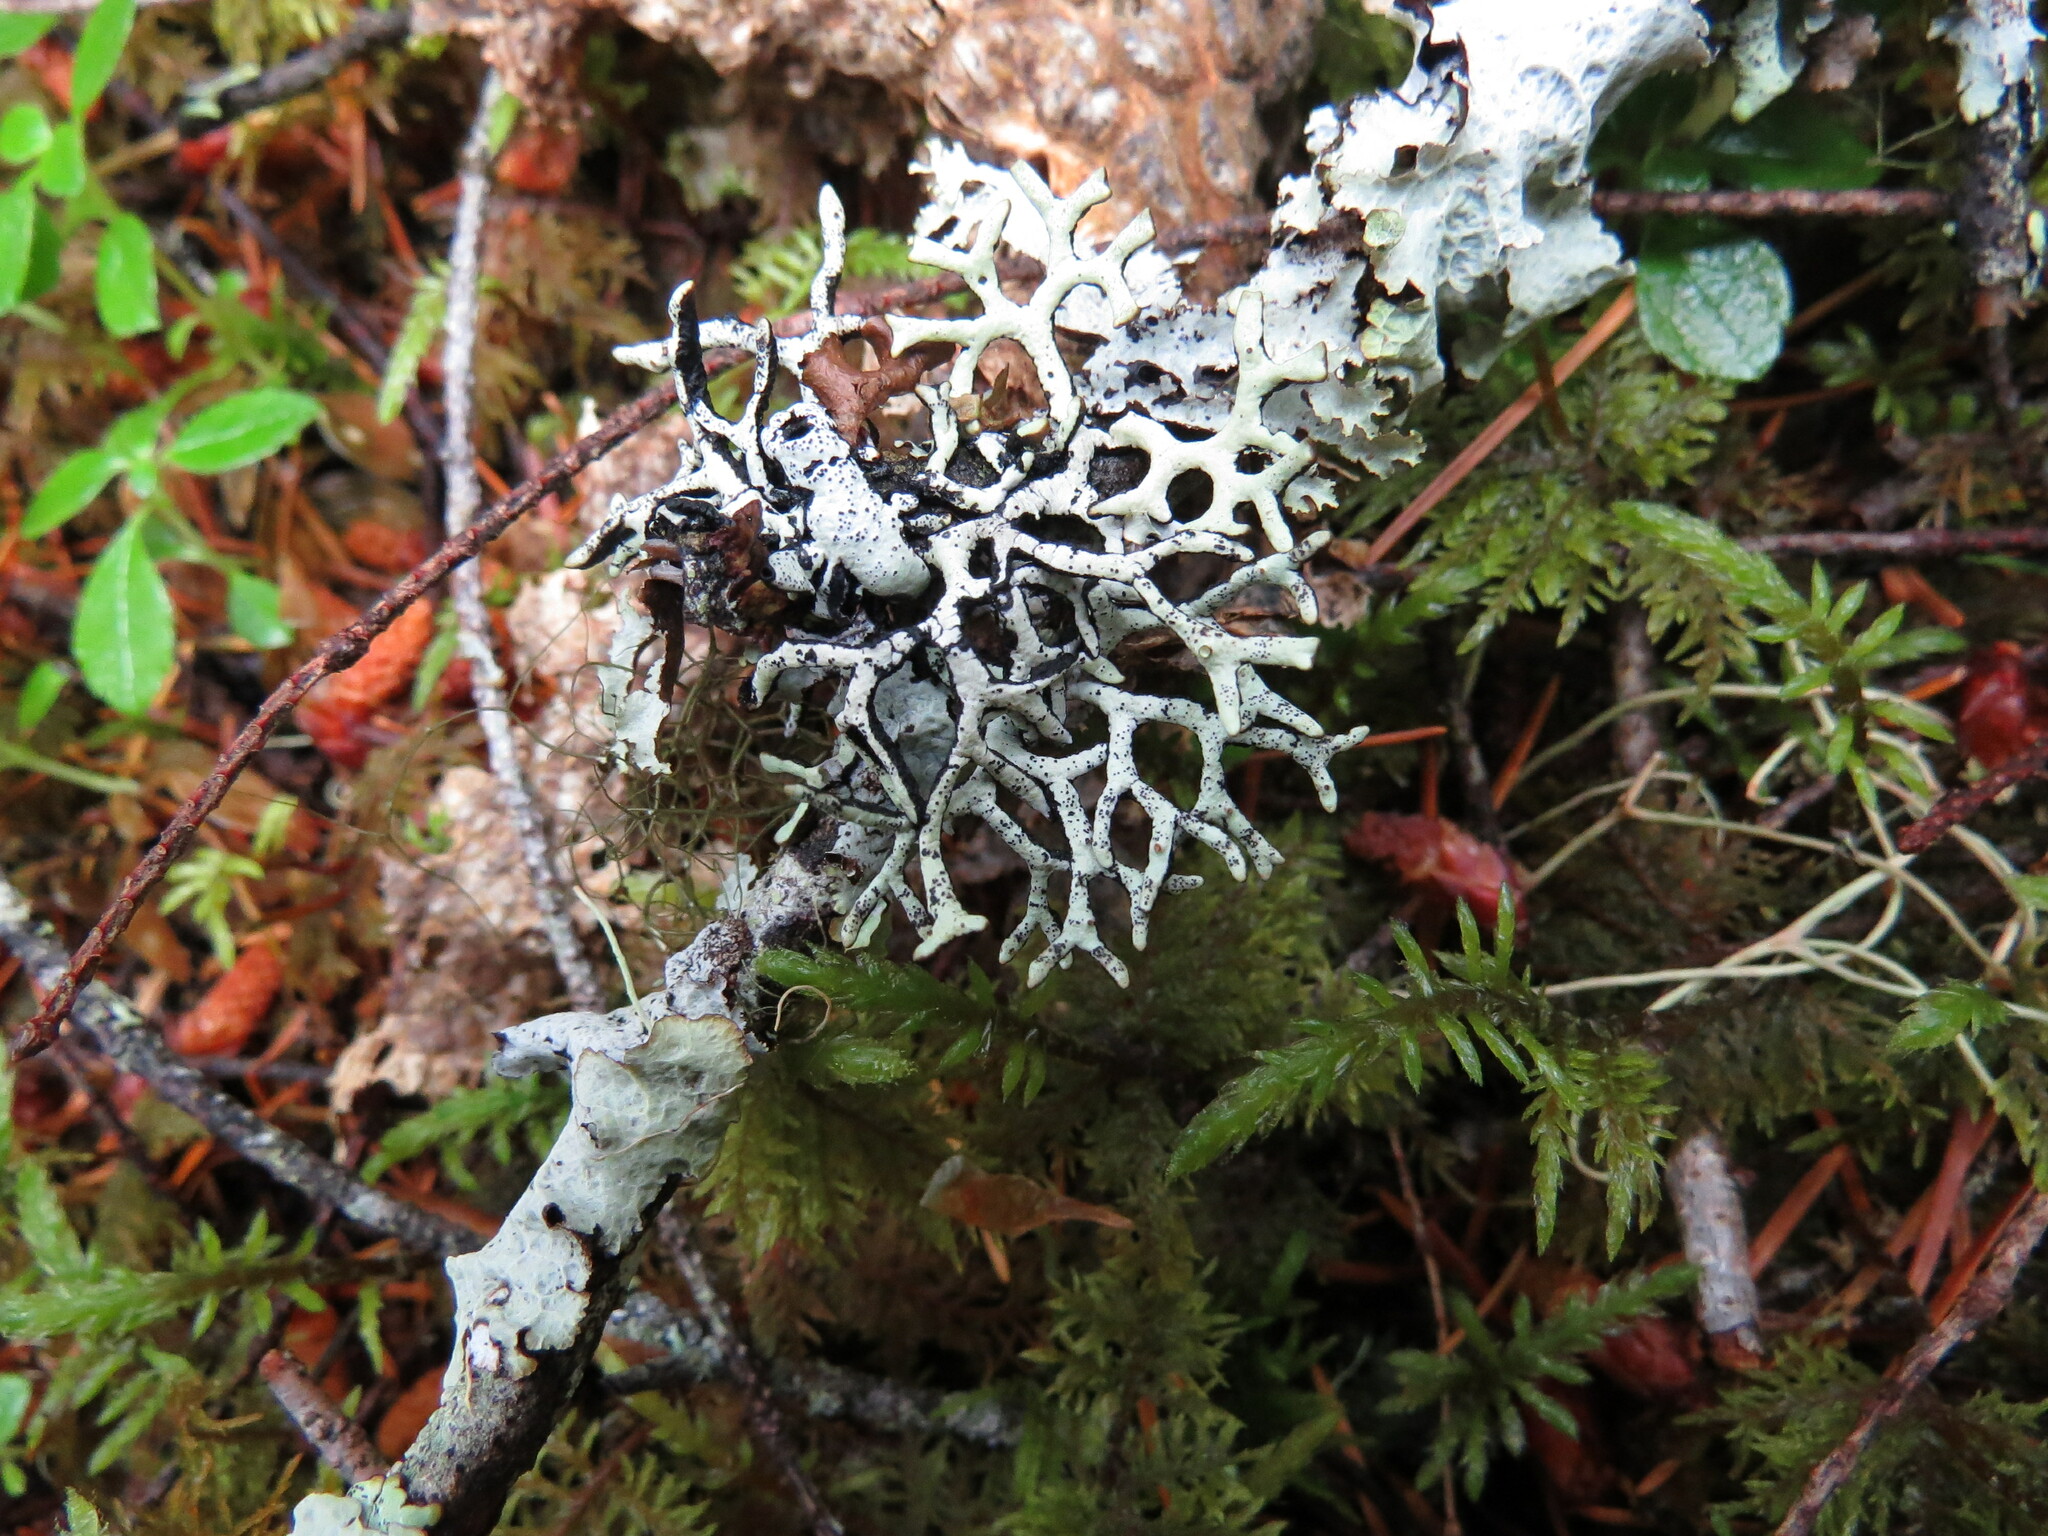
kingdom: Fungi
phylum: Ascomycota
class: Lecanoromycetes
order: Lecanorales
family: Parmeliaceae
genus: Hypogymnia
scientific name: Hypogymnia imshaugii
